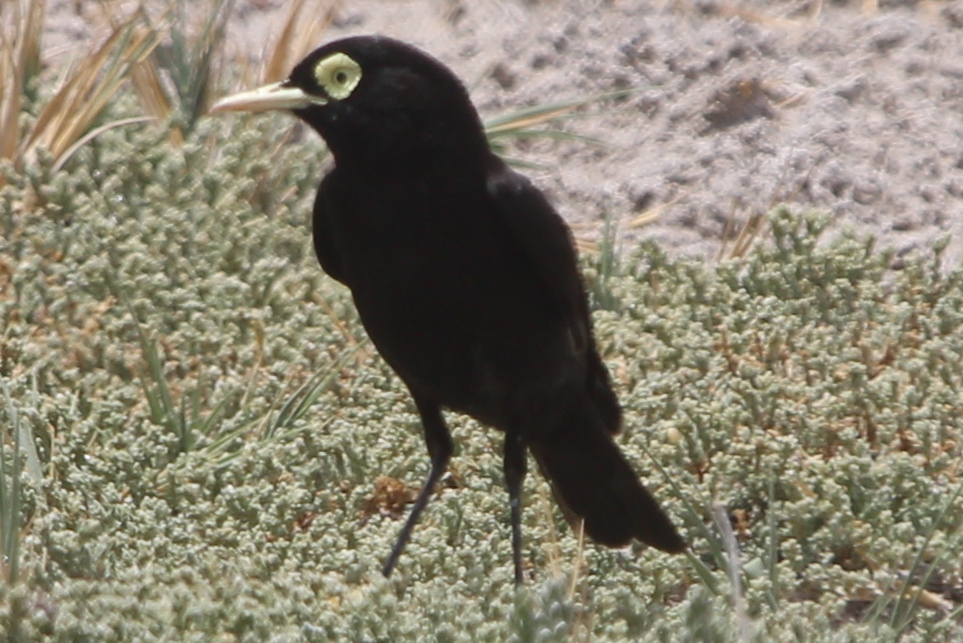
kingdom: Animalia
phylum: Chordata
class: Aves
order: Passeriformes
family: Tyrannidae
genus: Hymenops
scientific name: Hymenops perspicillatus
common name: Spectacled tyrant
